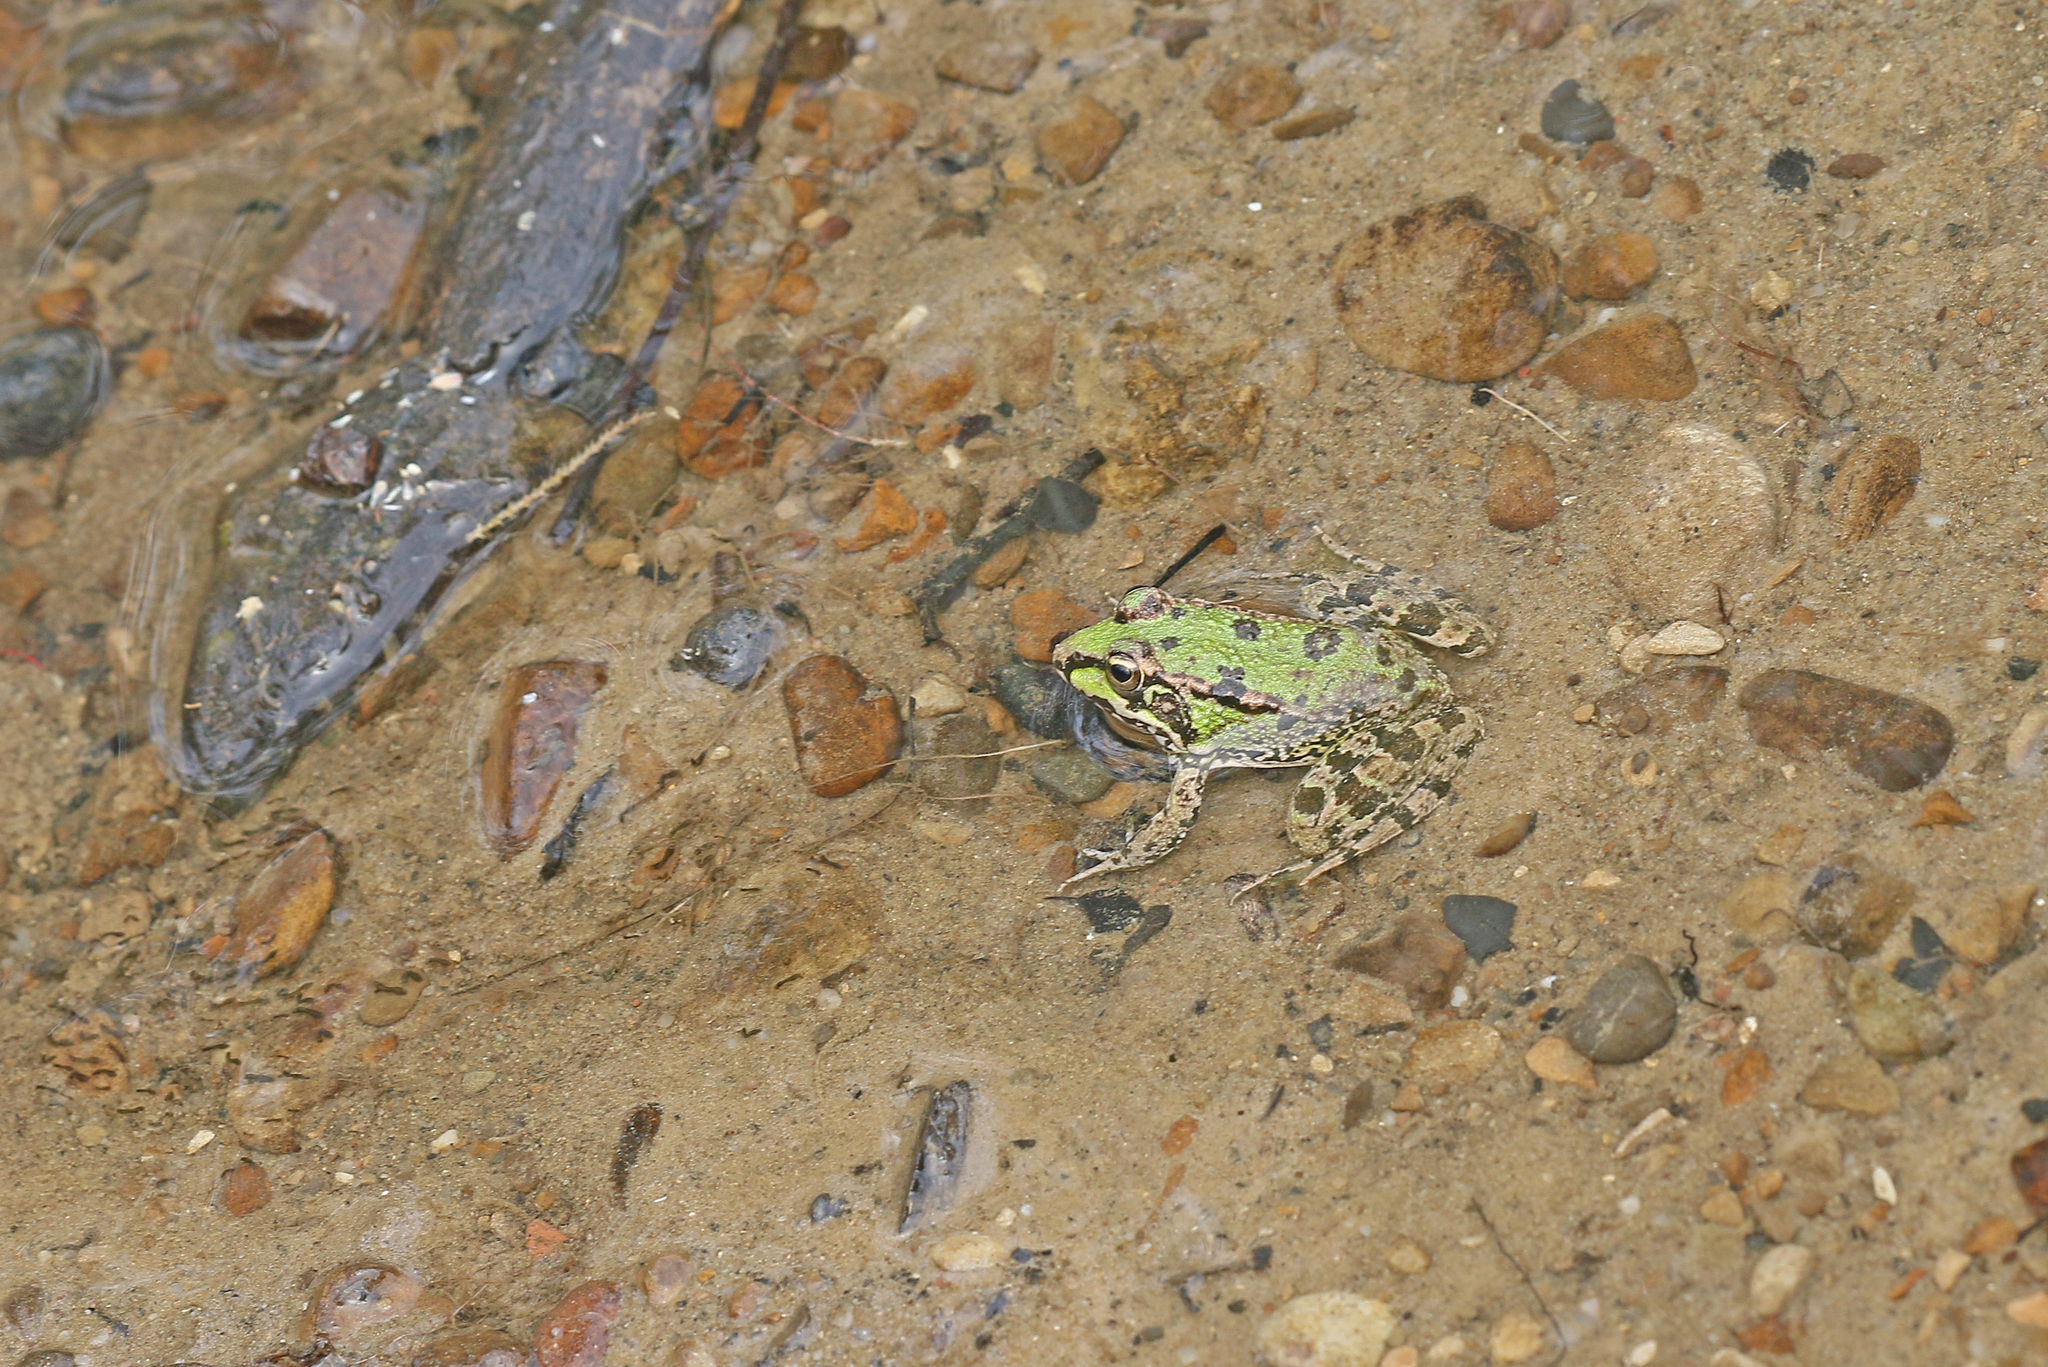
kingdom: Animalia
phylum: Chordata
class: Amphibia
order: Anura
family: Ranidae
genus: Pelophylax
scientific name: Pelophylax perezi
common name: Perez's frog
